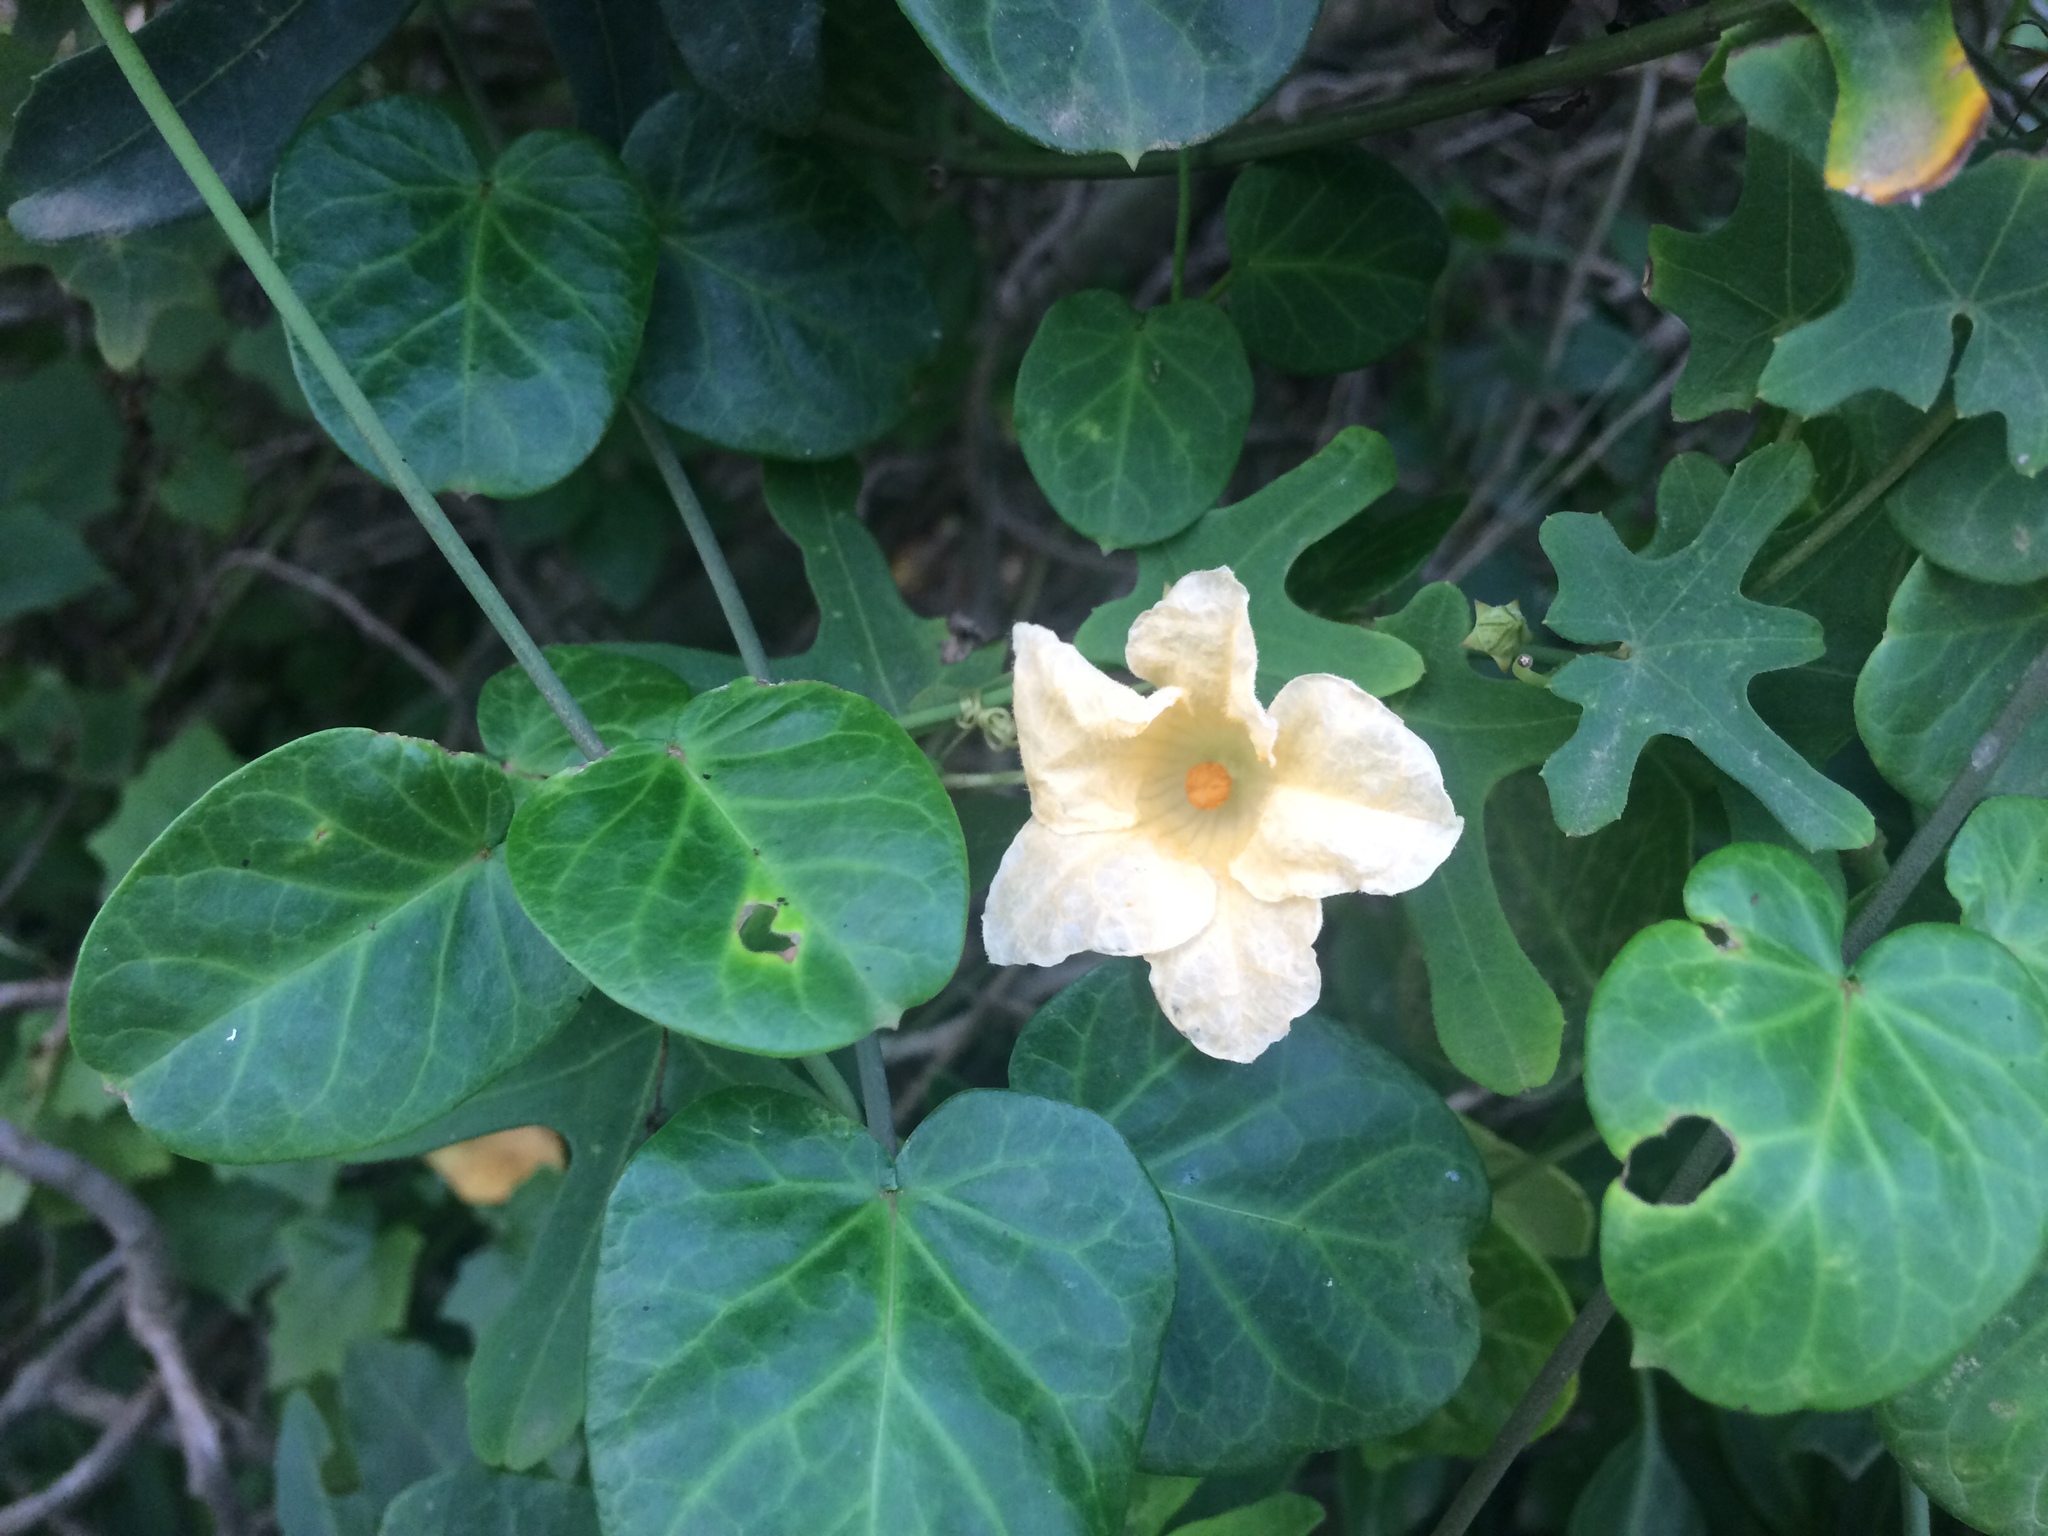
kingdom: Plantae
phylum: Tracheophyta
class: Magnoliopsida
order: Cucurbitales
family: Cucurbitaceae
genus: Coccinia
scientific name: Coccinia quinqueloba
